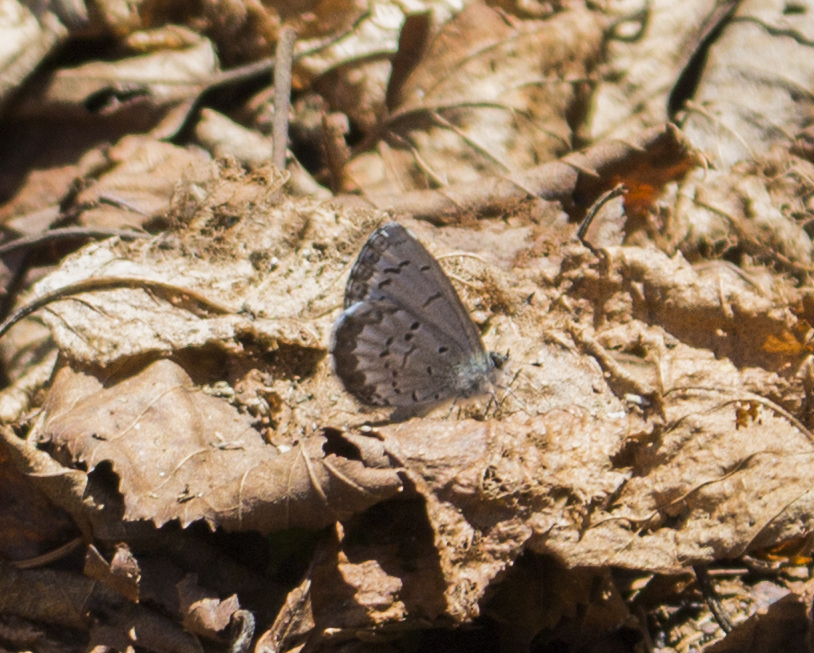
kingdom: Animalia
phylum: Arthropoda
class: Insecta
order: Lepidoptera
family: Lycaenidae
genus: Celastrina
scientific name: Celastrina lucia
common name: Lucia azure
